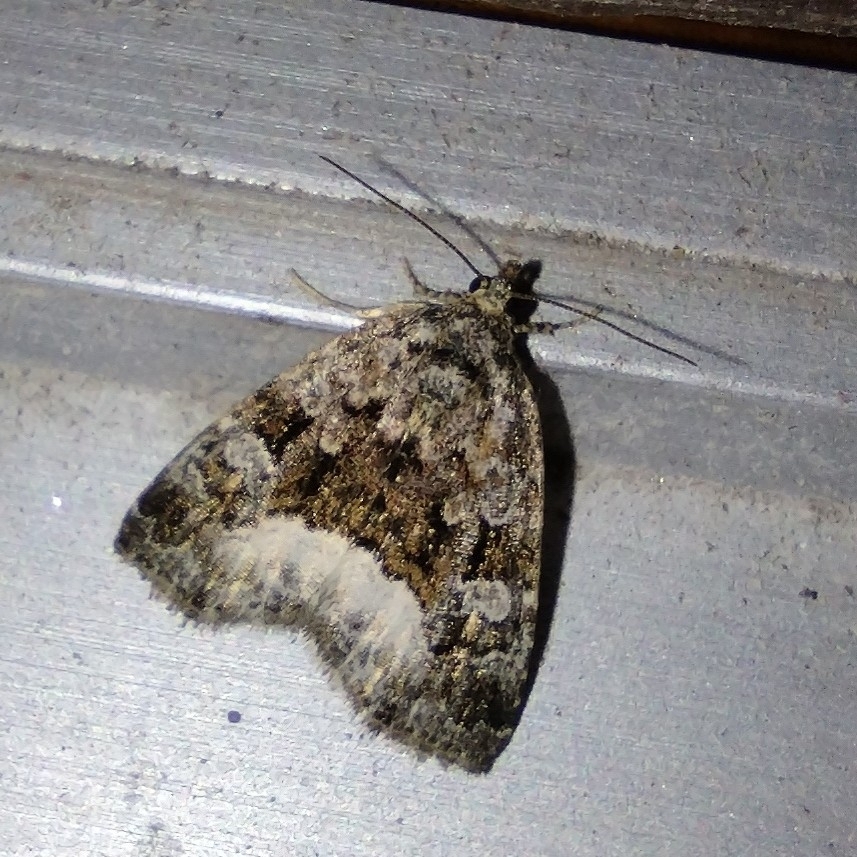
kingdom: Animalia
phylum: Arthropoda
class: Insecta
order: Lepidoptera
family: Noctuidae
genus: Deltote
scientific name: Deltote pygarga
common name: Marbled white spot
